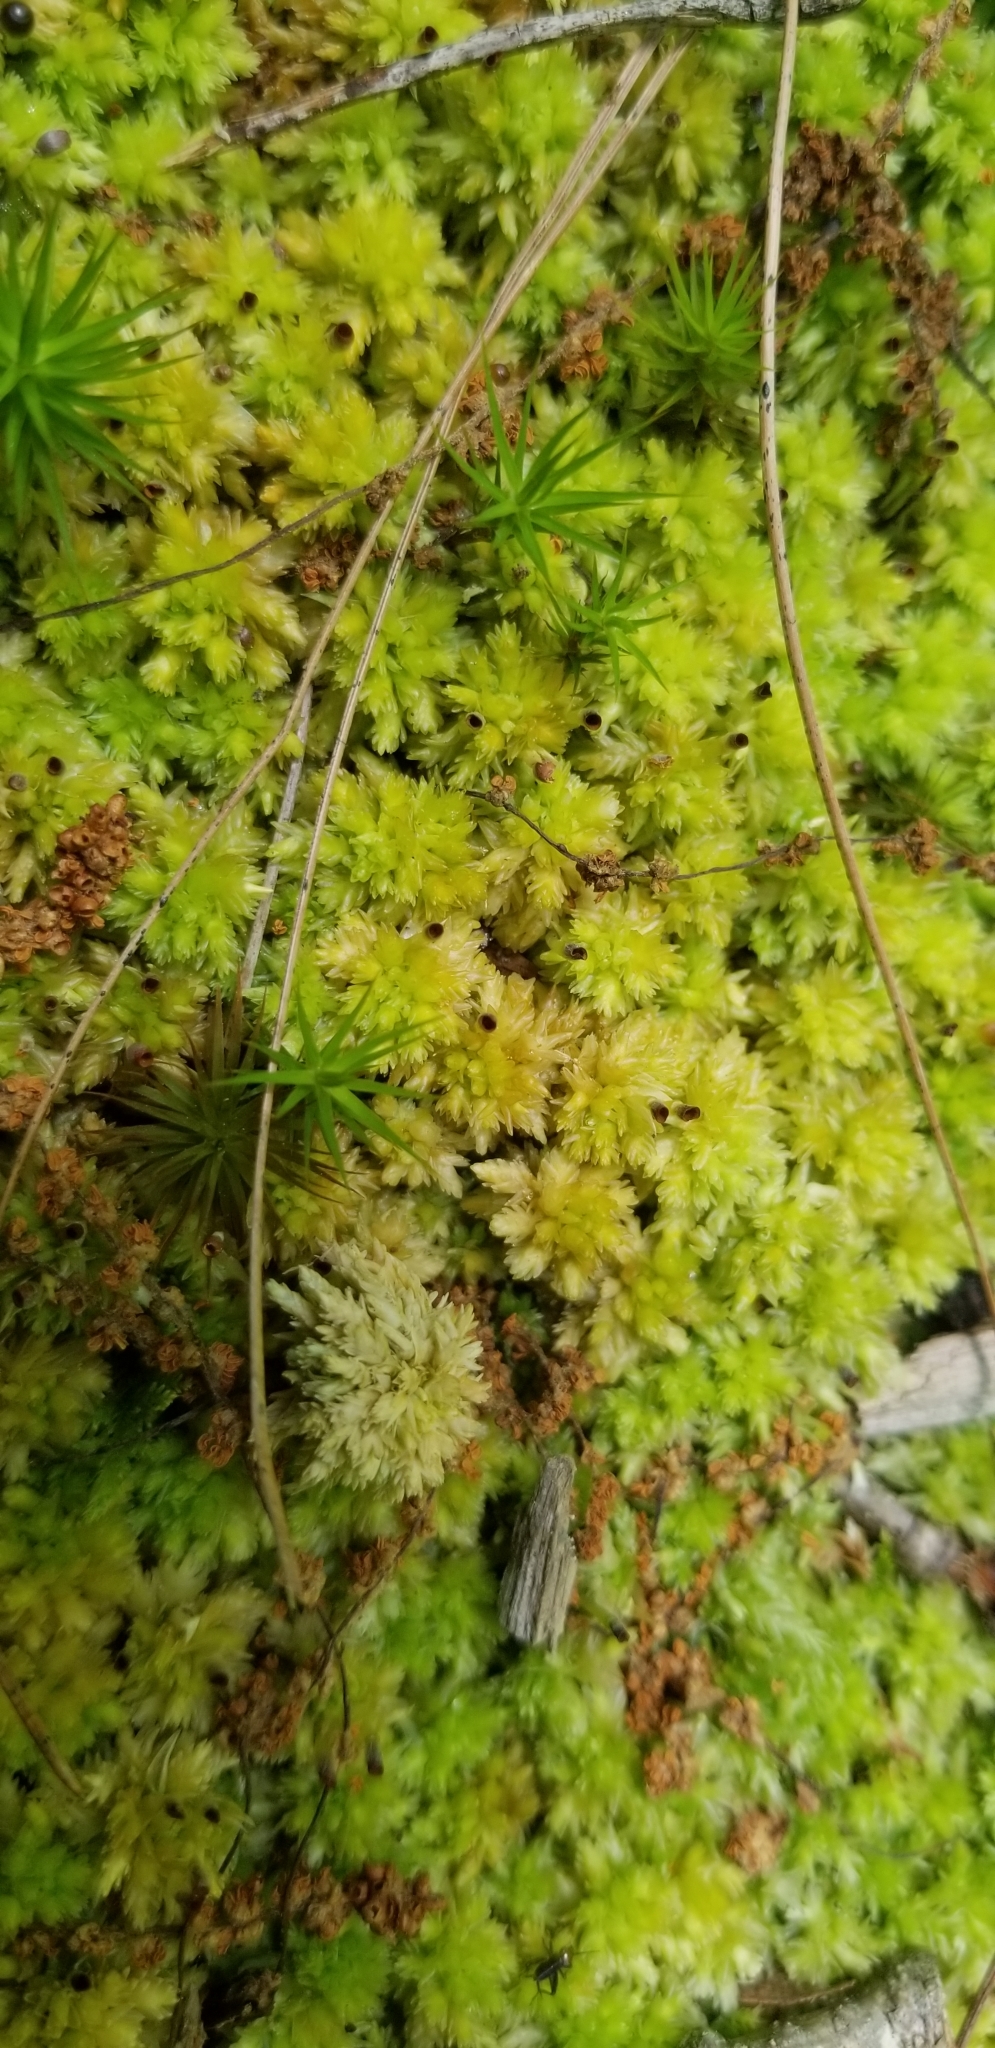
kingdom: Plantae
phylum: Bryophyta
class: Sphagnopsida
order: Sphagnales
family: Sphagnaceae
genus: Sphagnum
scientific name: Sphagnum compactum
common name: Compact peat moss
